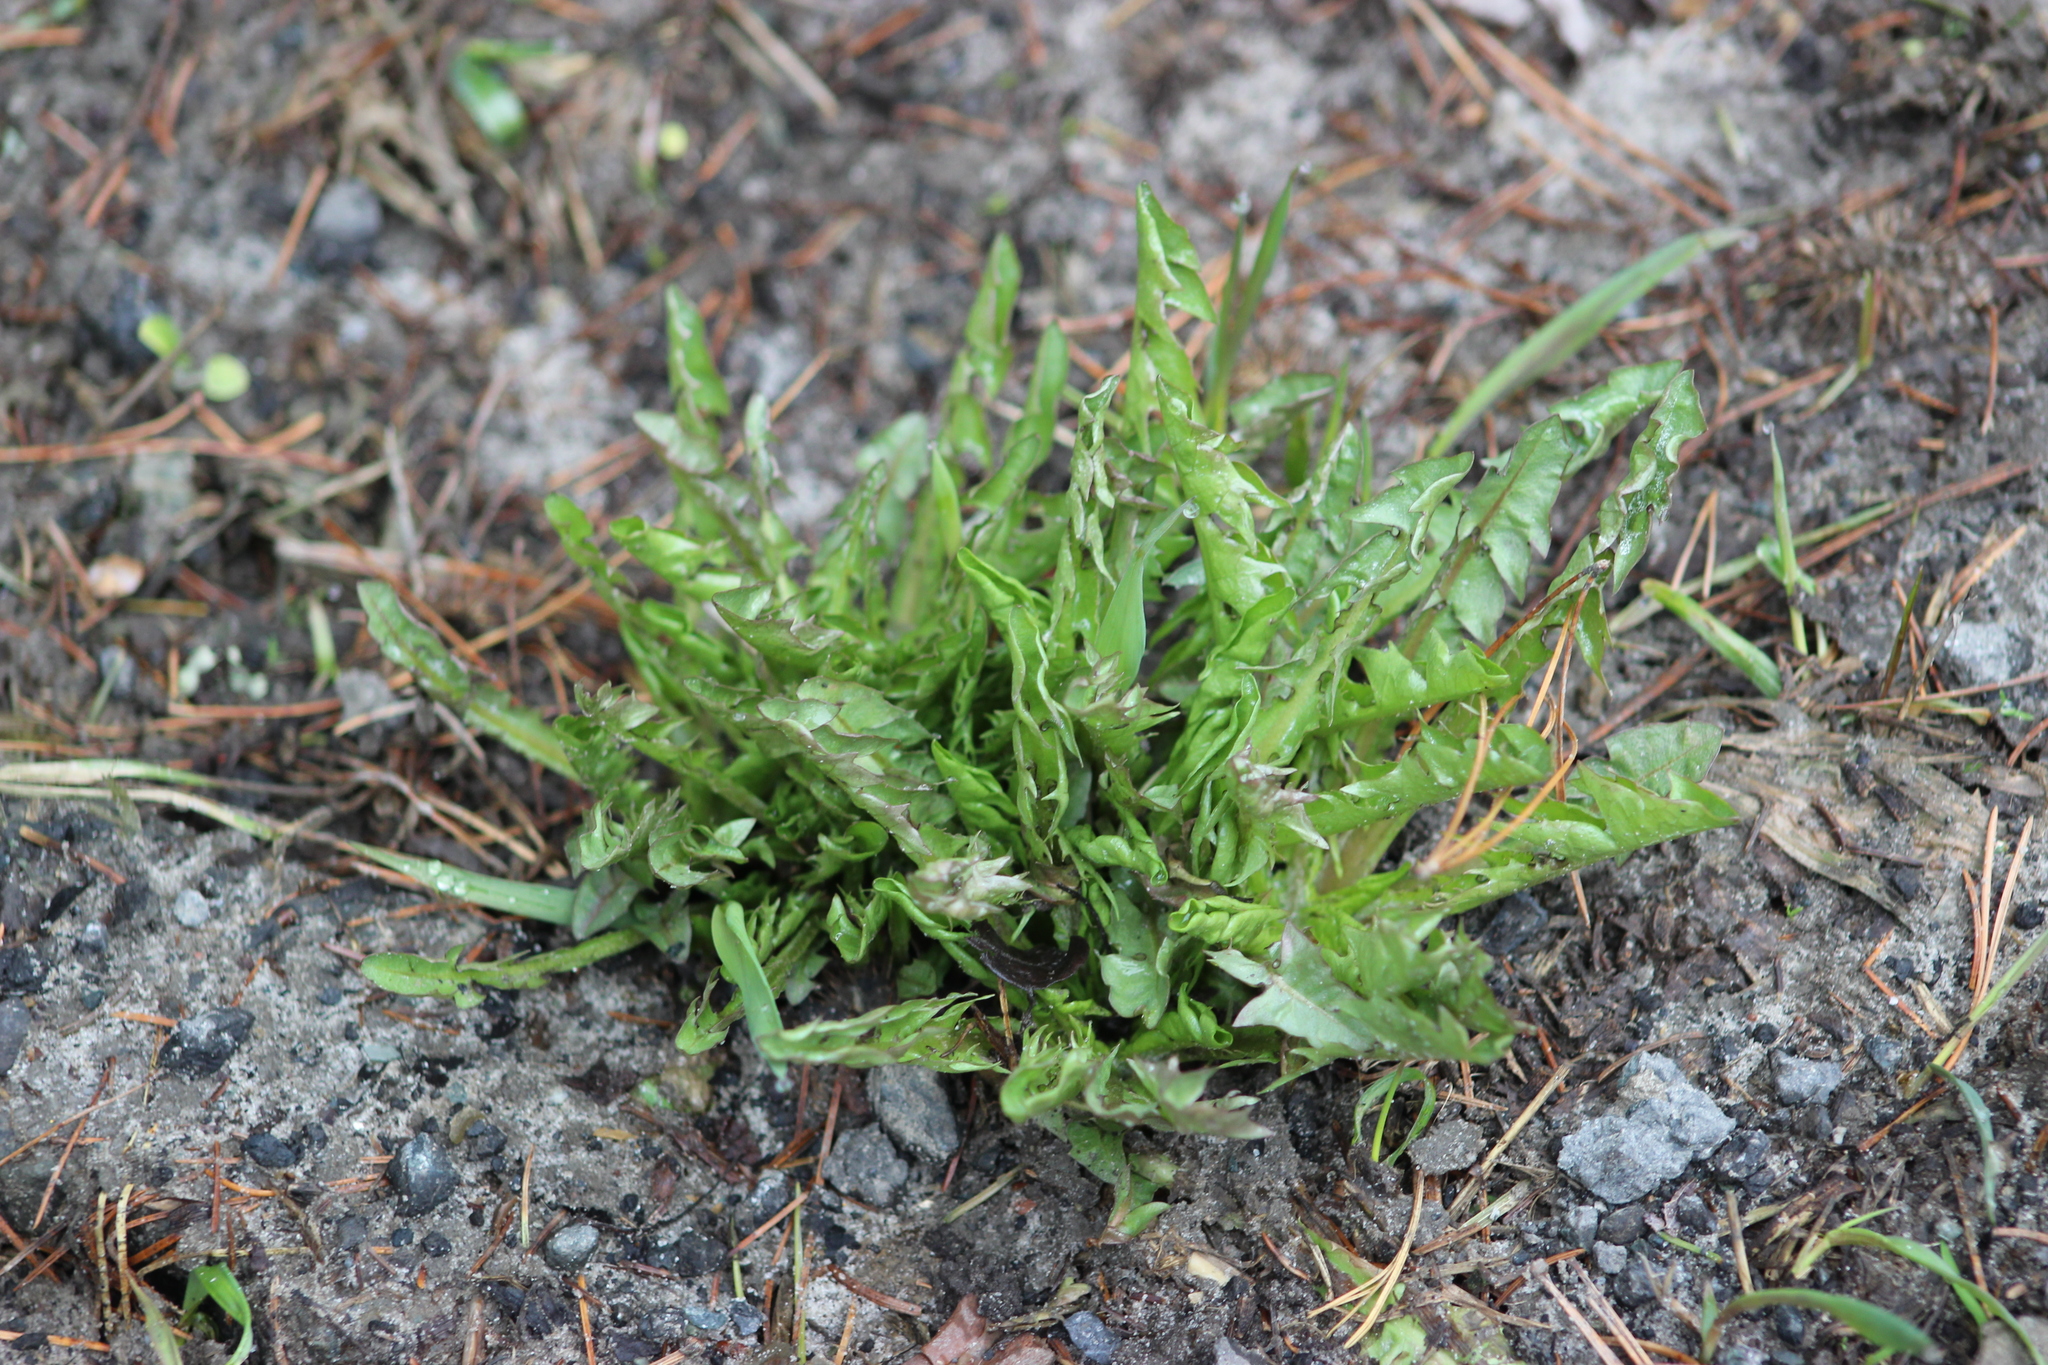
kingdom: Plantae
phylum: Tracheophyta
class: Magnoliopsida
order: Asterales
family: Asteraceae
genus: Taraxacum
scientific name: Taraxacum officinale
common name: Common dandelion
